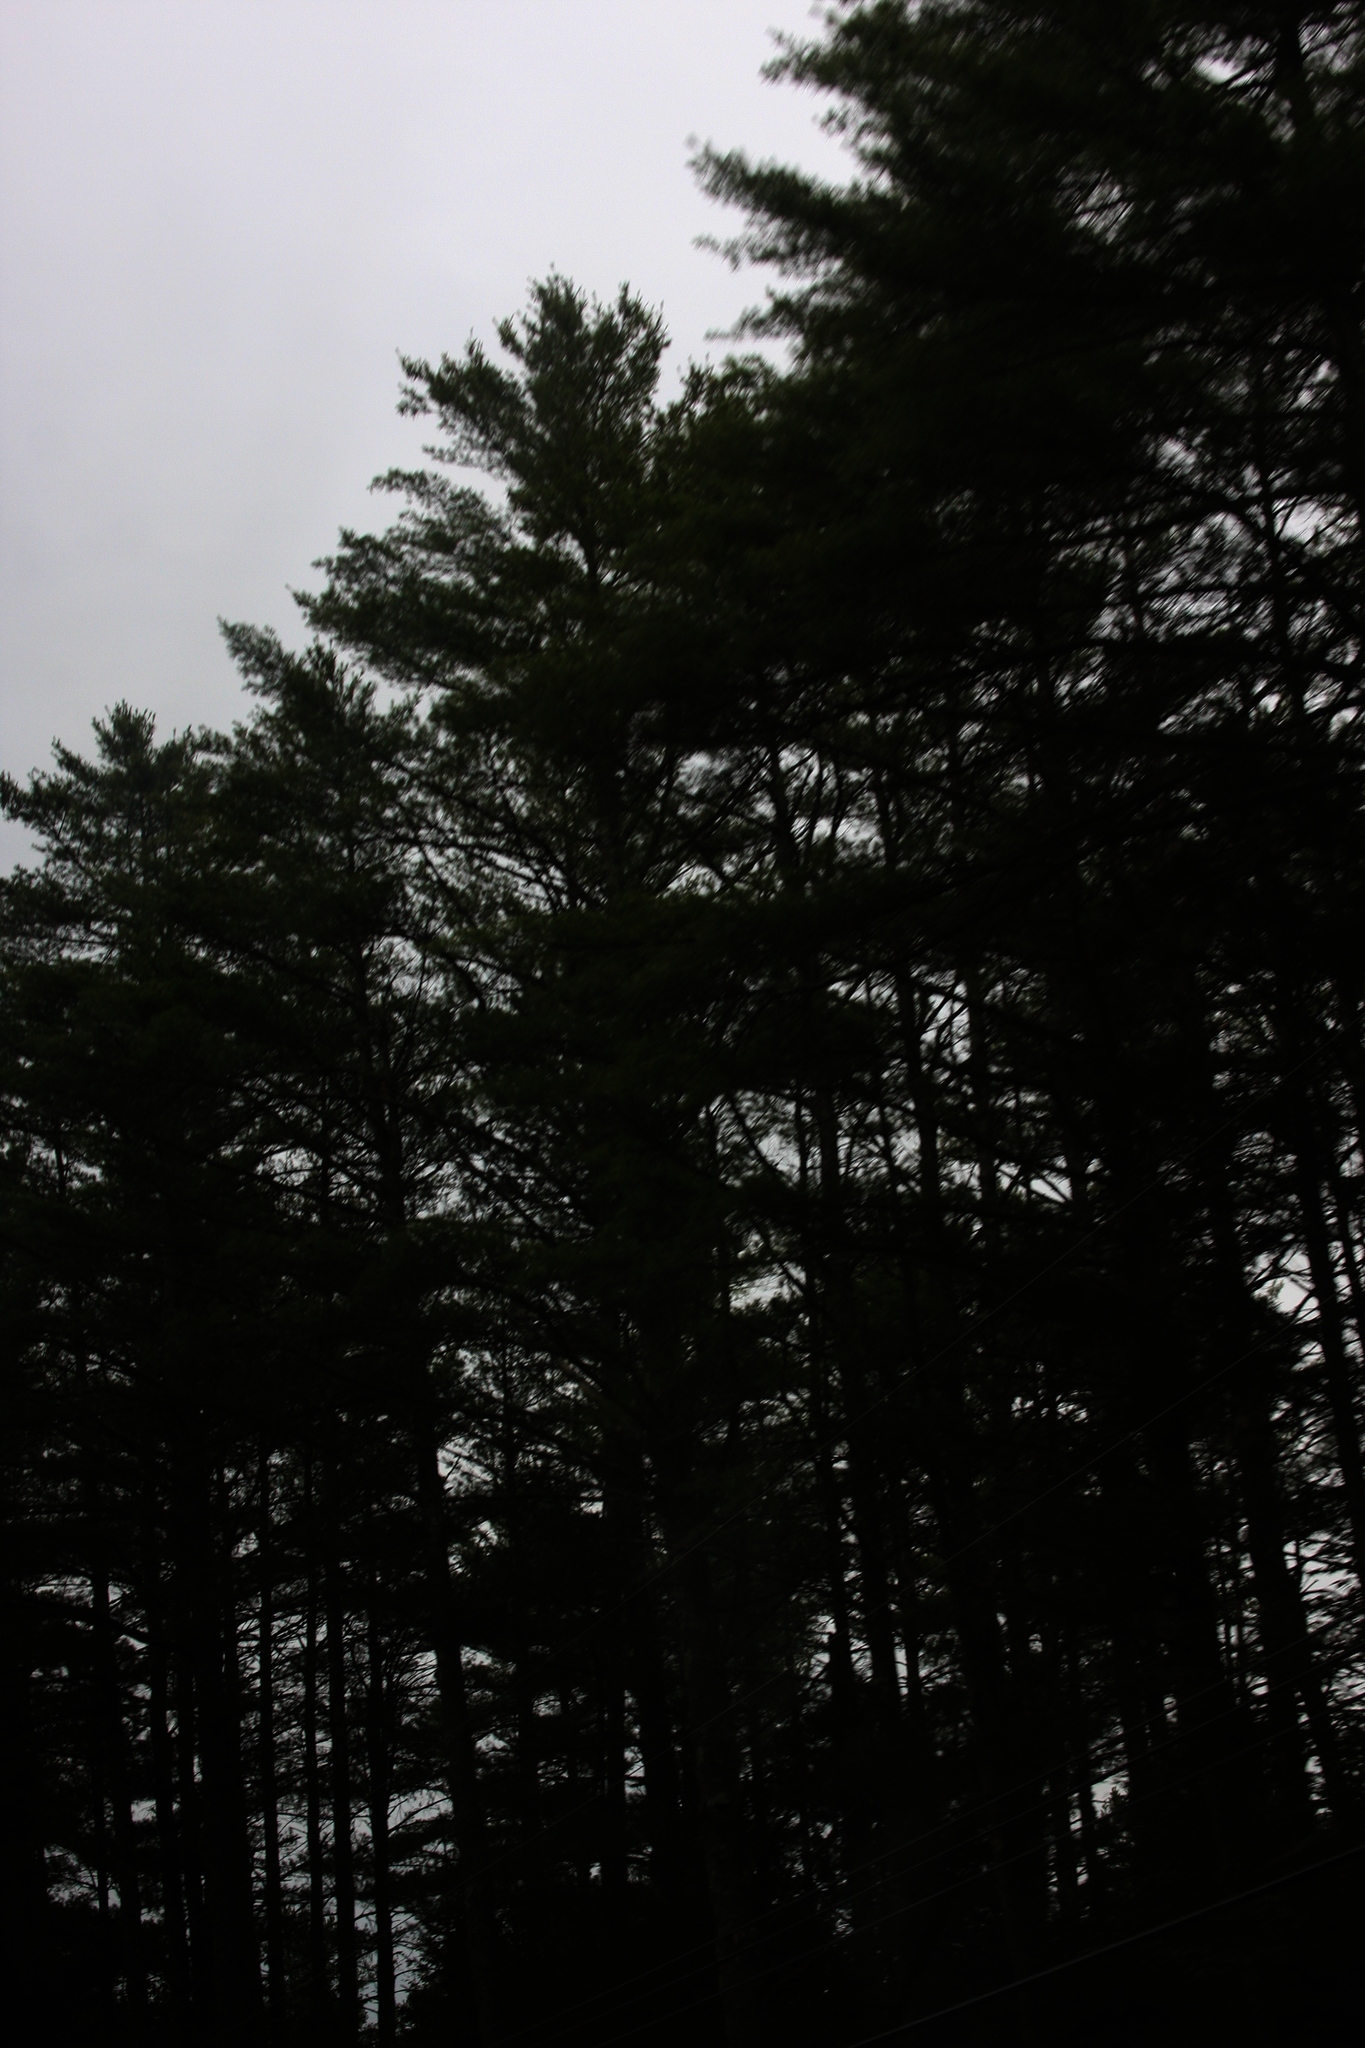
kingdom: Plantae
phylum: Tracheophyta
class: Pinopsida
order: Pinales
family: Pinaceae
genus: Pinus
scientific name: Pinus strobus
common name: Weymouth pine
